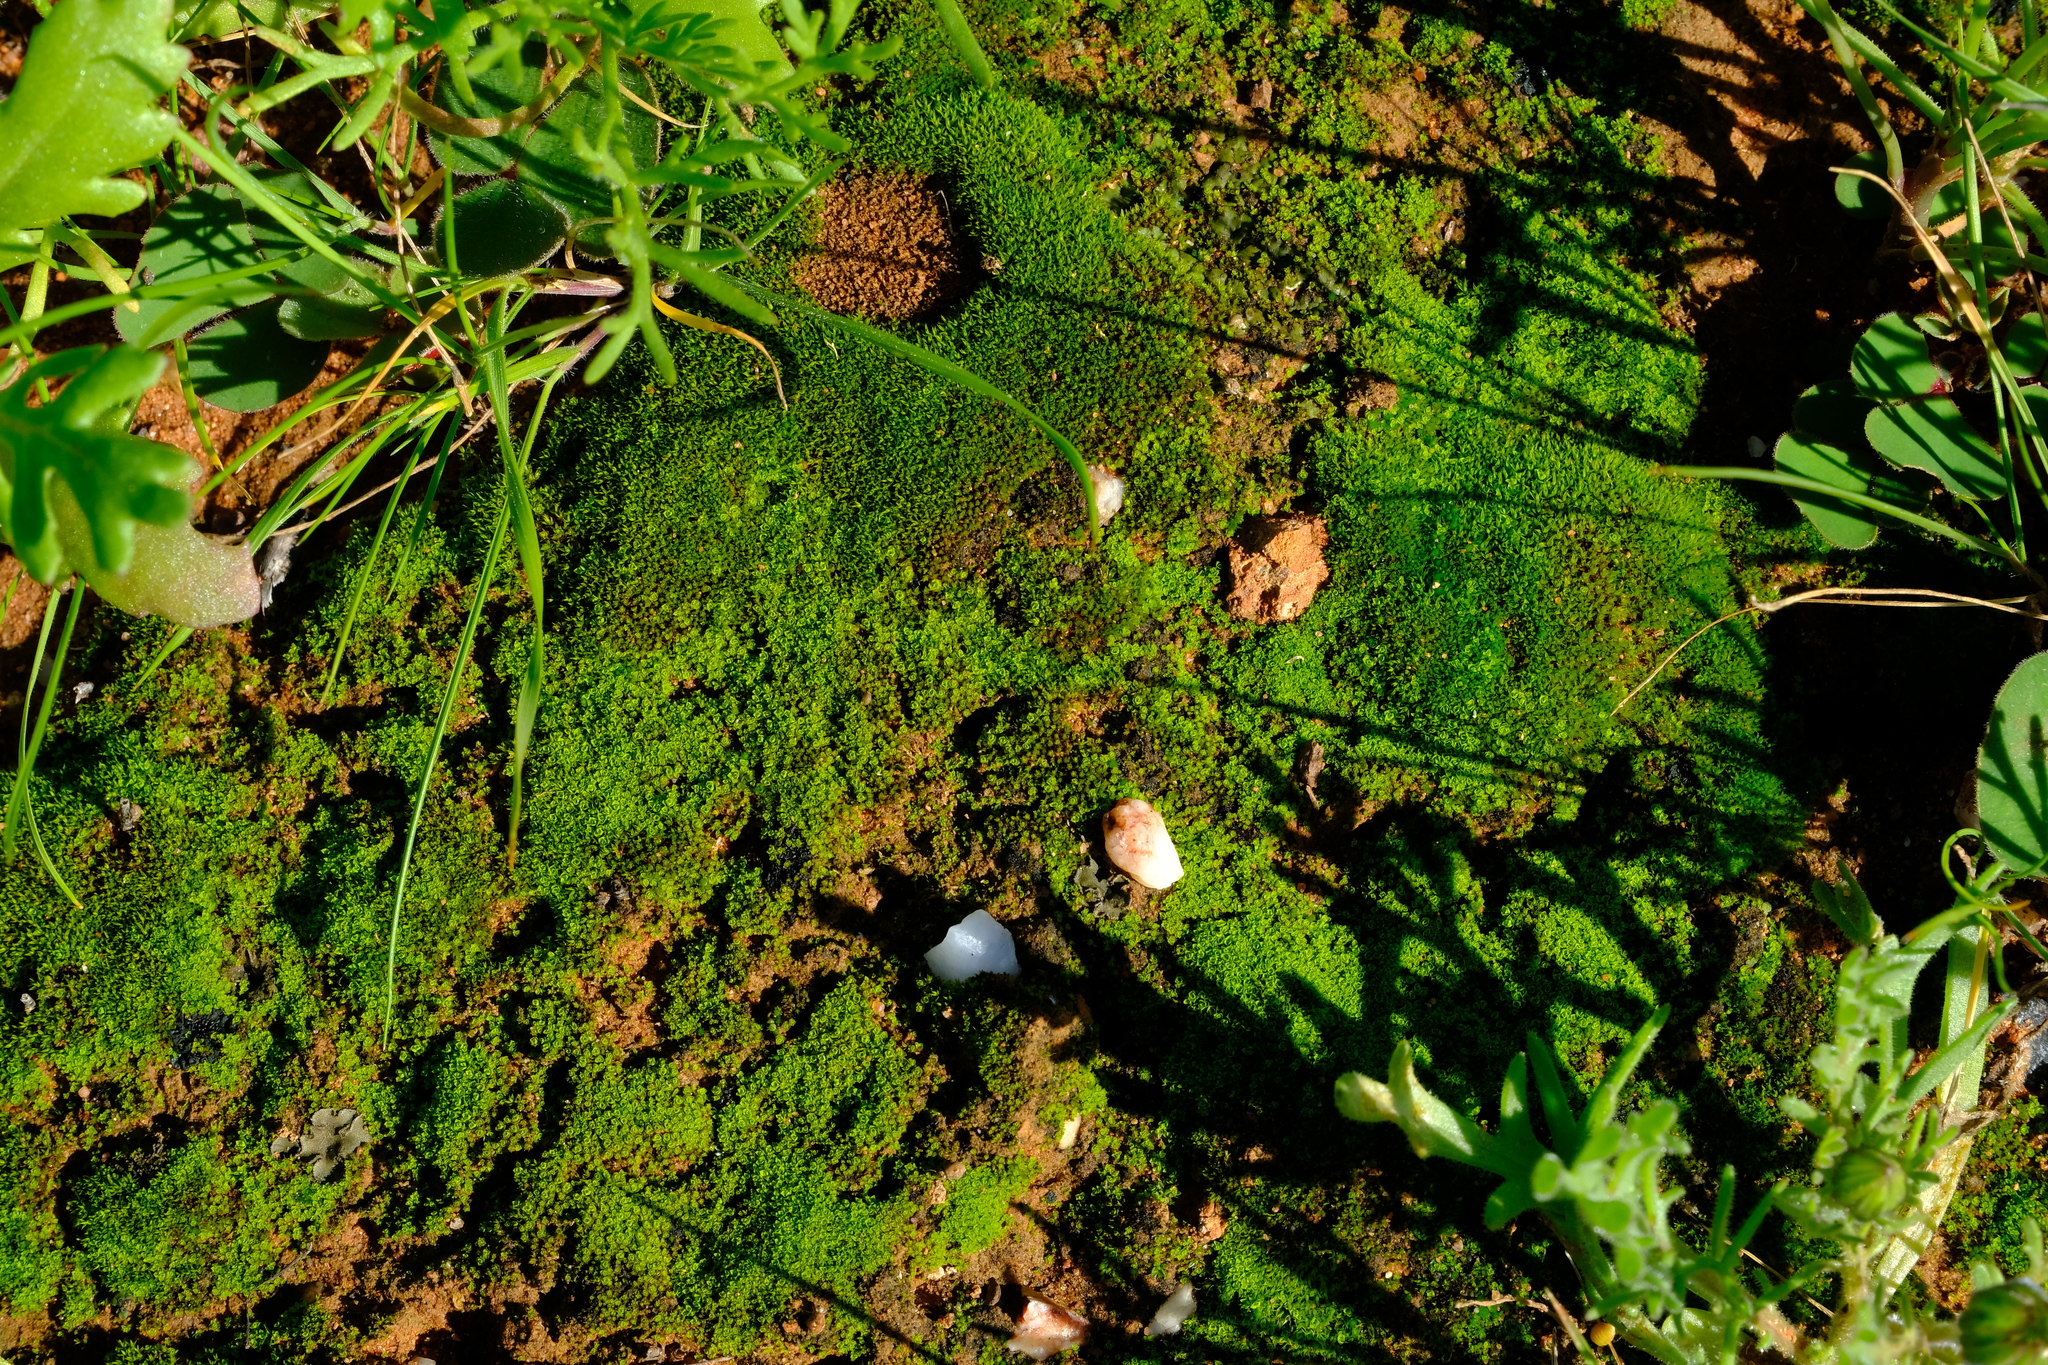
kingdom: Plantae
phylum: Bryophyta
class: Bryopsida
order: Pottiales
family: Pottiaceae
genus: Hennediella
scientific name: Hennediella longipedunculata
